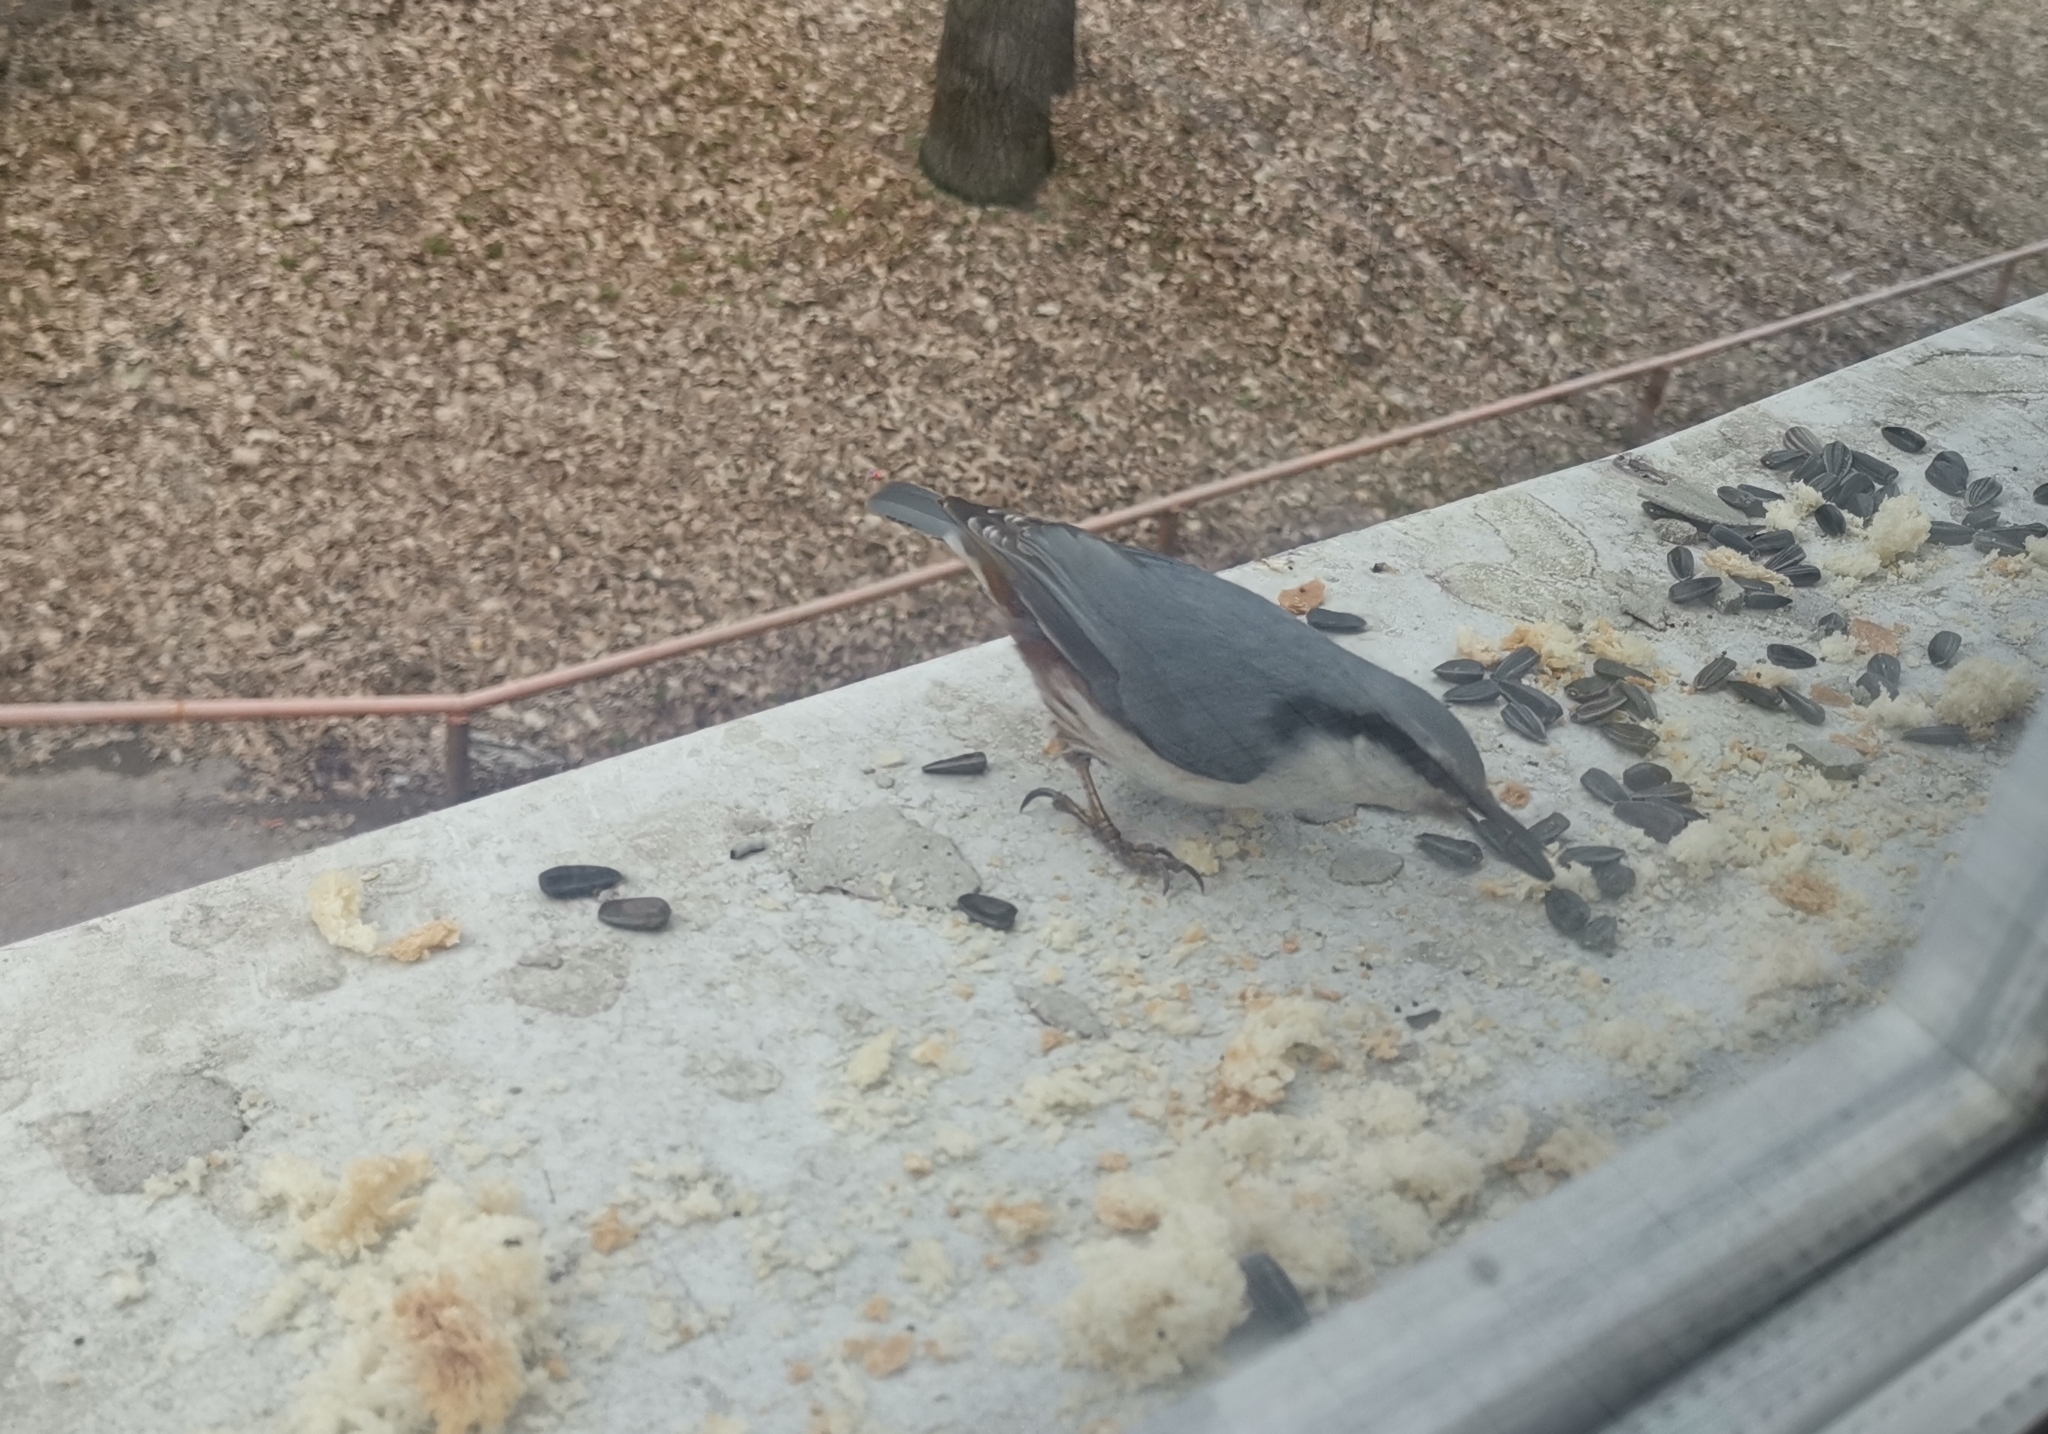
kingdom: Animalia
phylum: Chordata
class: Aves
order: Passeriformes
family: Sittidae
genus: Sitta
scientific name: Sitta europaea
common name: Eurasian nuthatch
